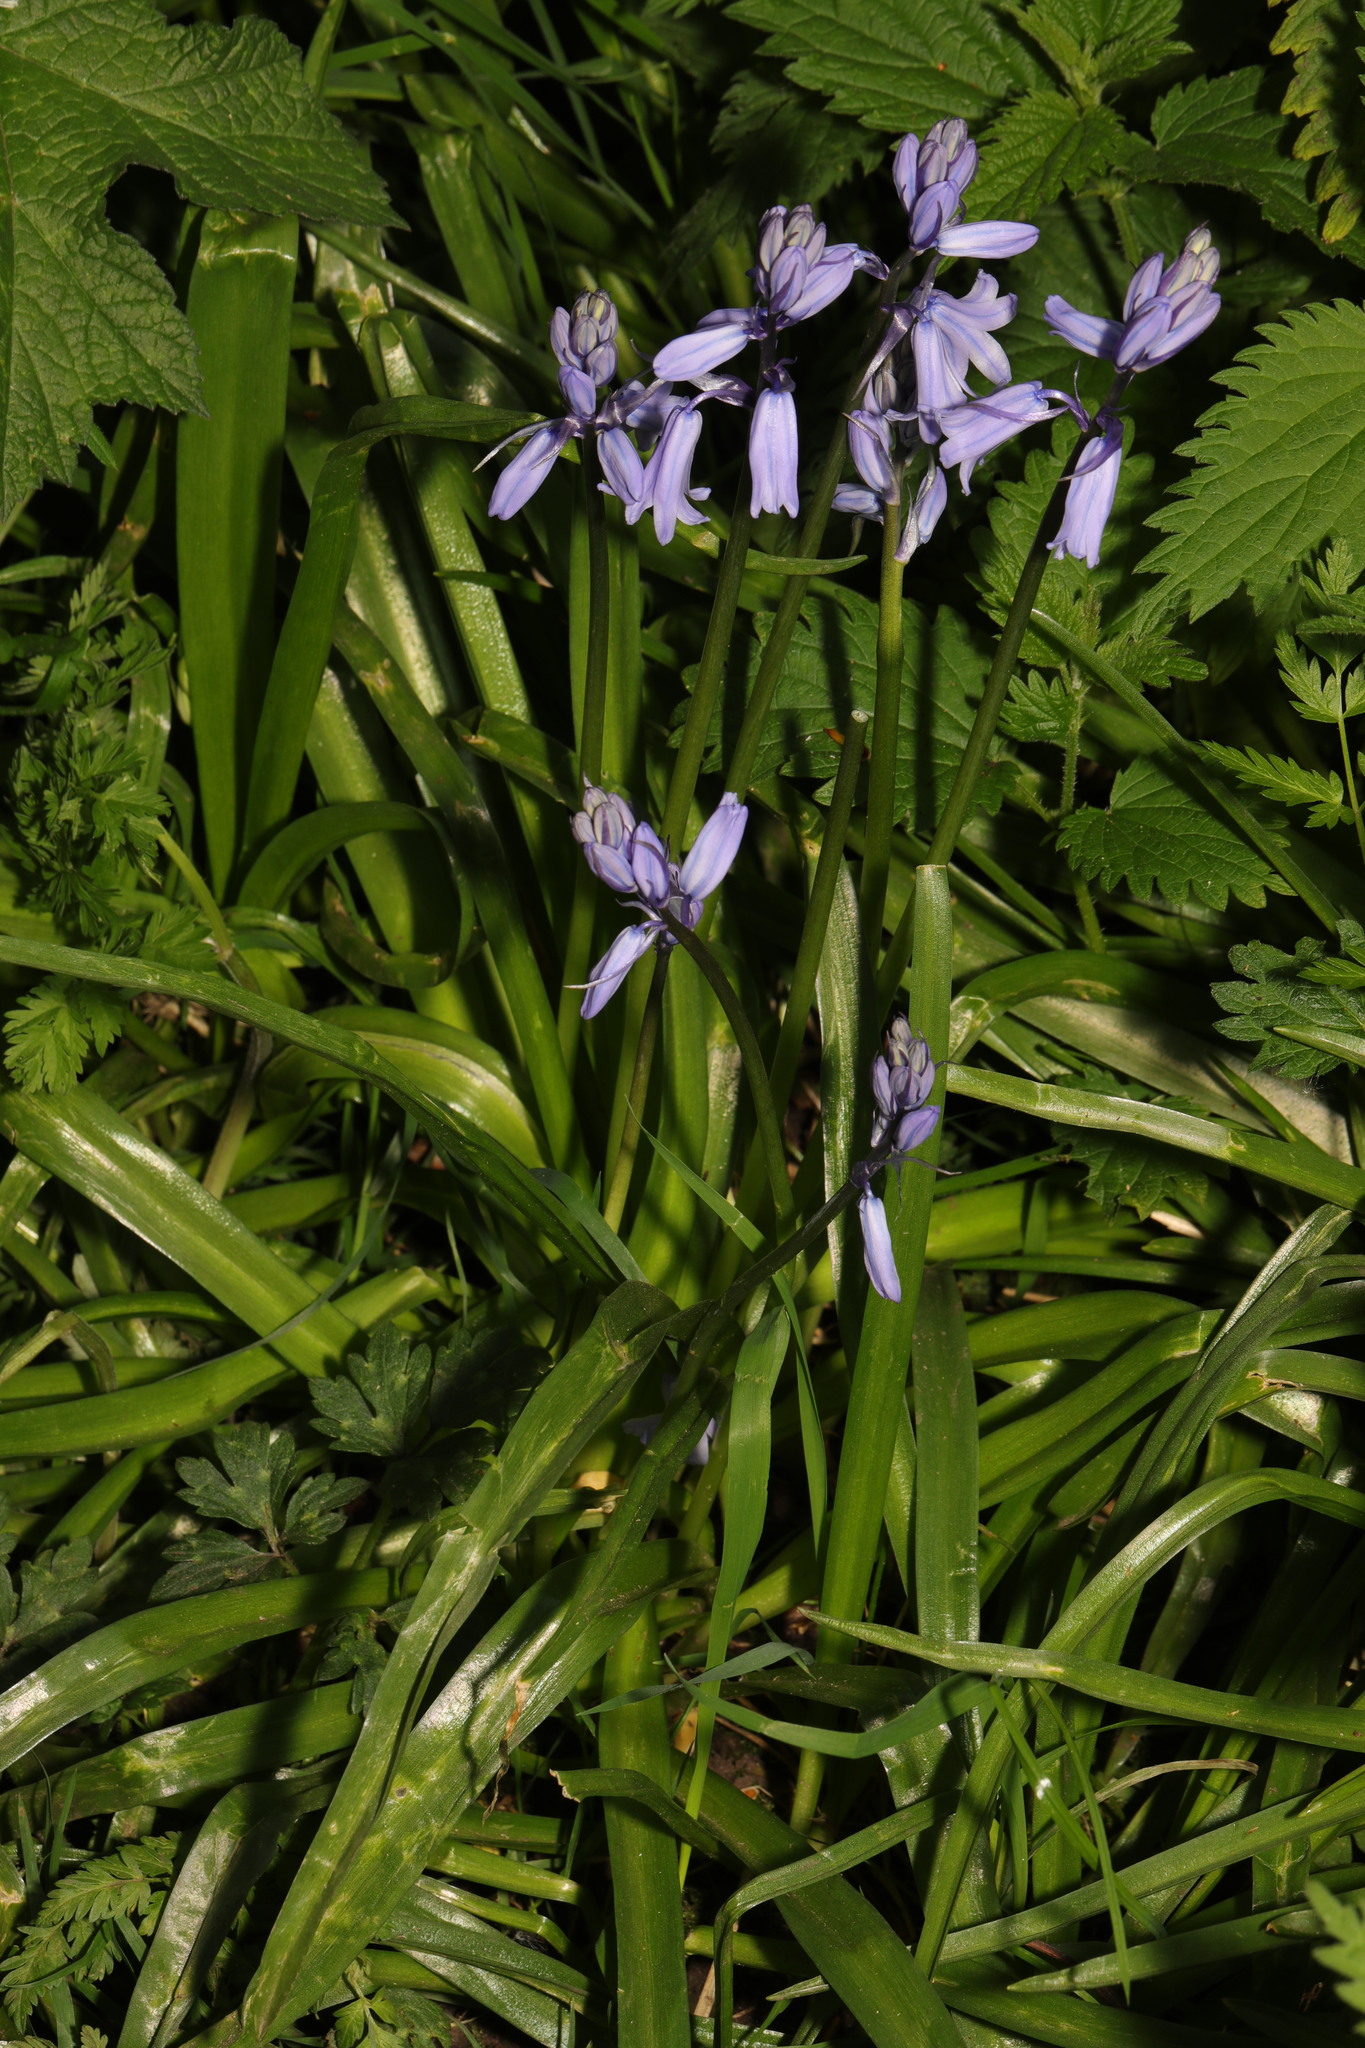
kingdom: Plantae
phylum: Tracheophyta
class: Liliopsida
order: Asparagales
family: Asparagaceae
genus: Hyacinthoides
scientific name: Hyacinthoides hispanica
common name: Spanish bluebell
